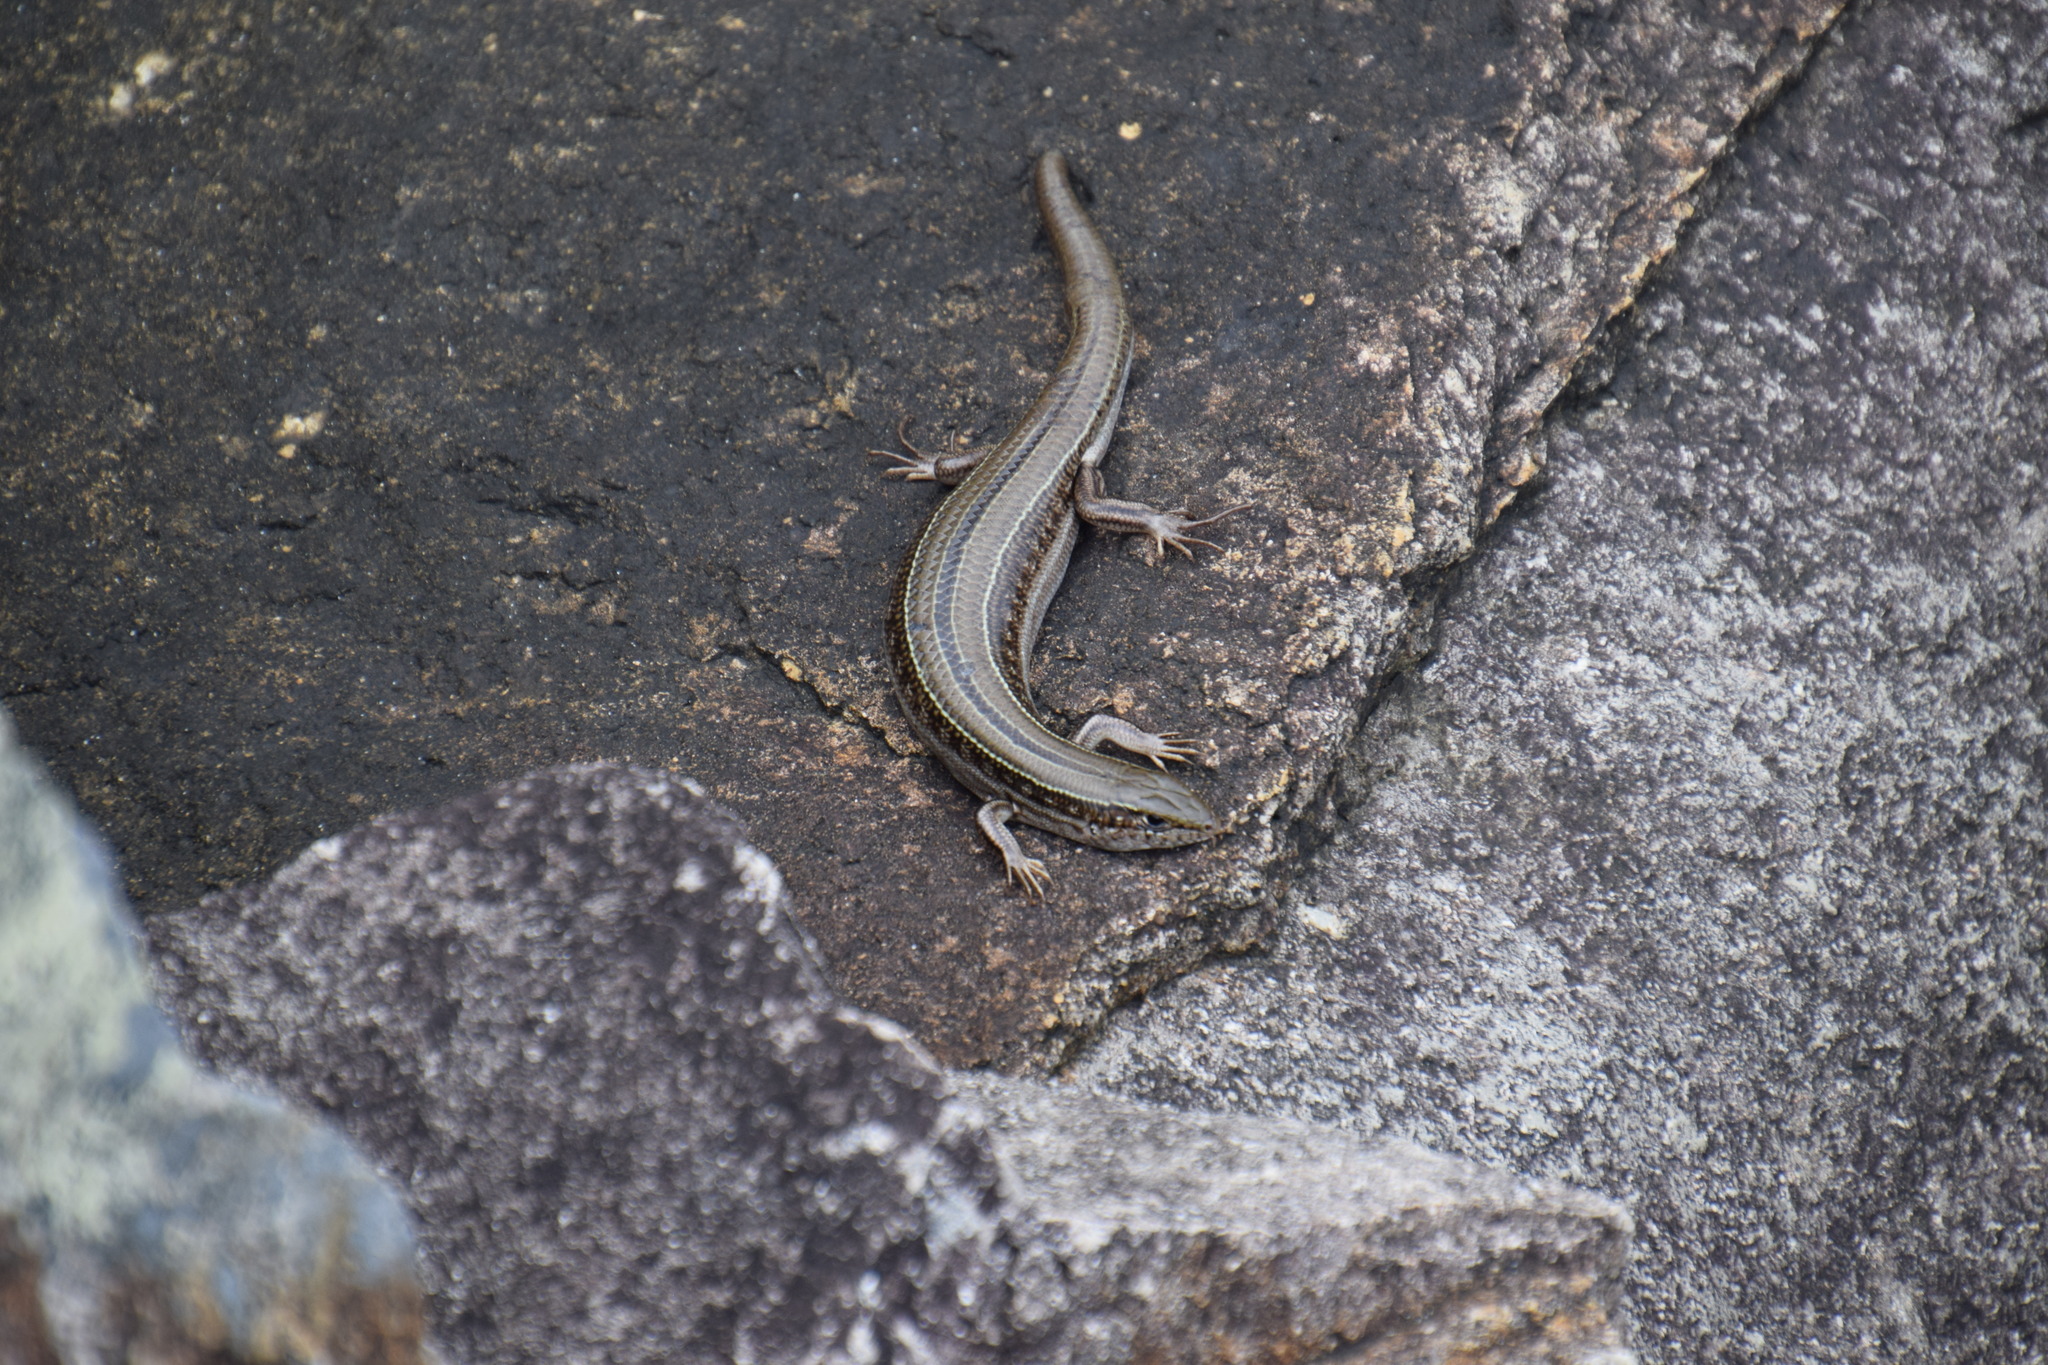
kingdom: Animalia
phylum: Chordata
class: Squamata
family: Scincidae
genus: Ctenotus
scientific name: Ctenotus robustus
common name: Robust ctenotus
